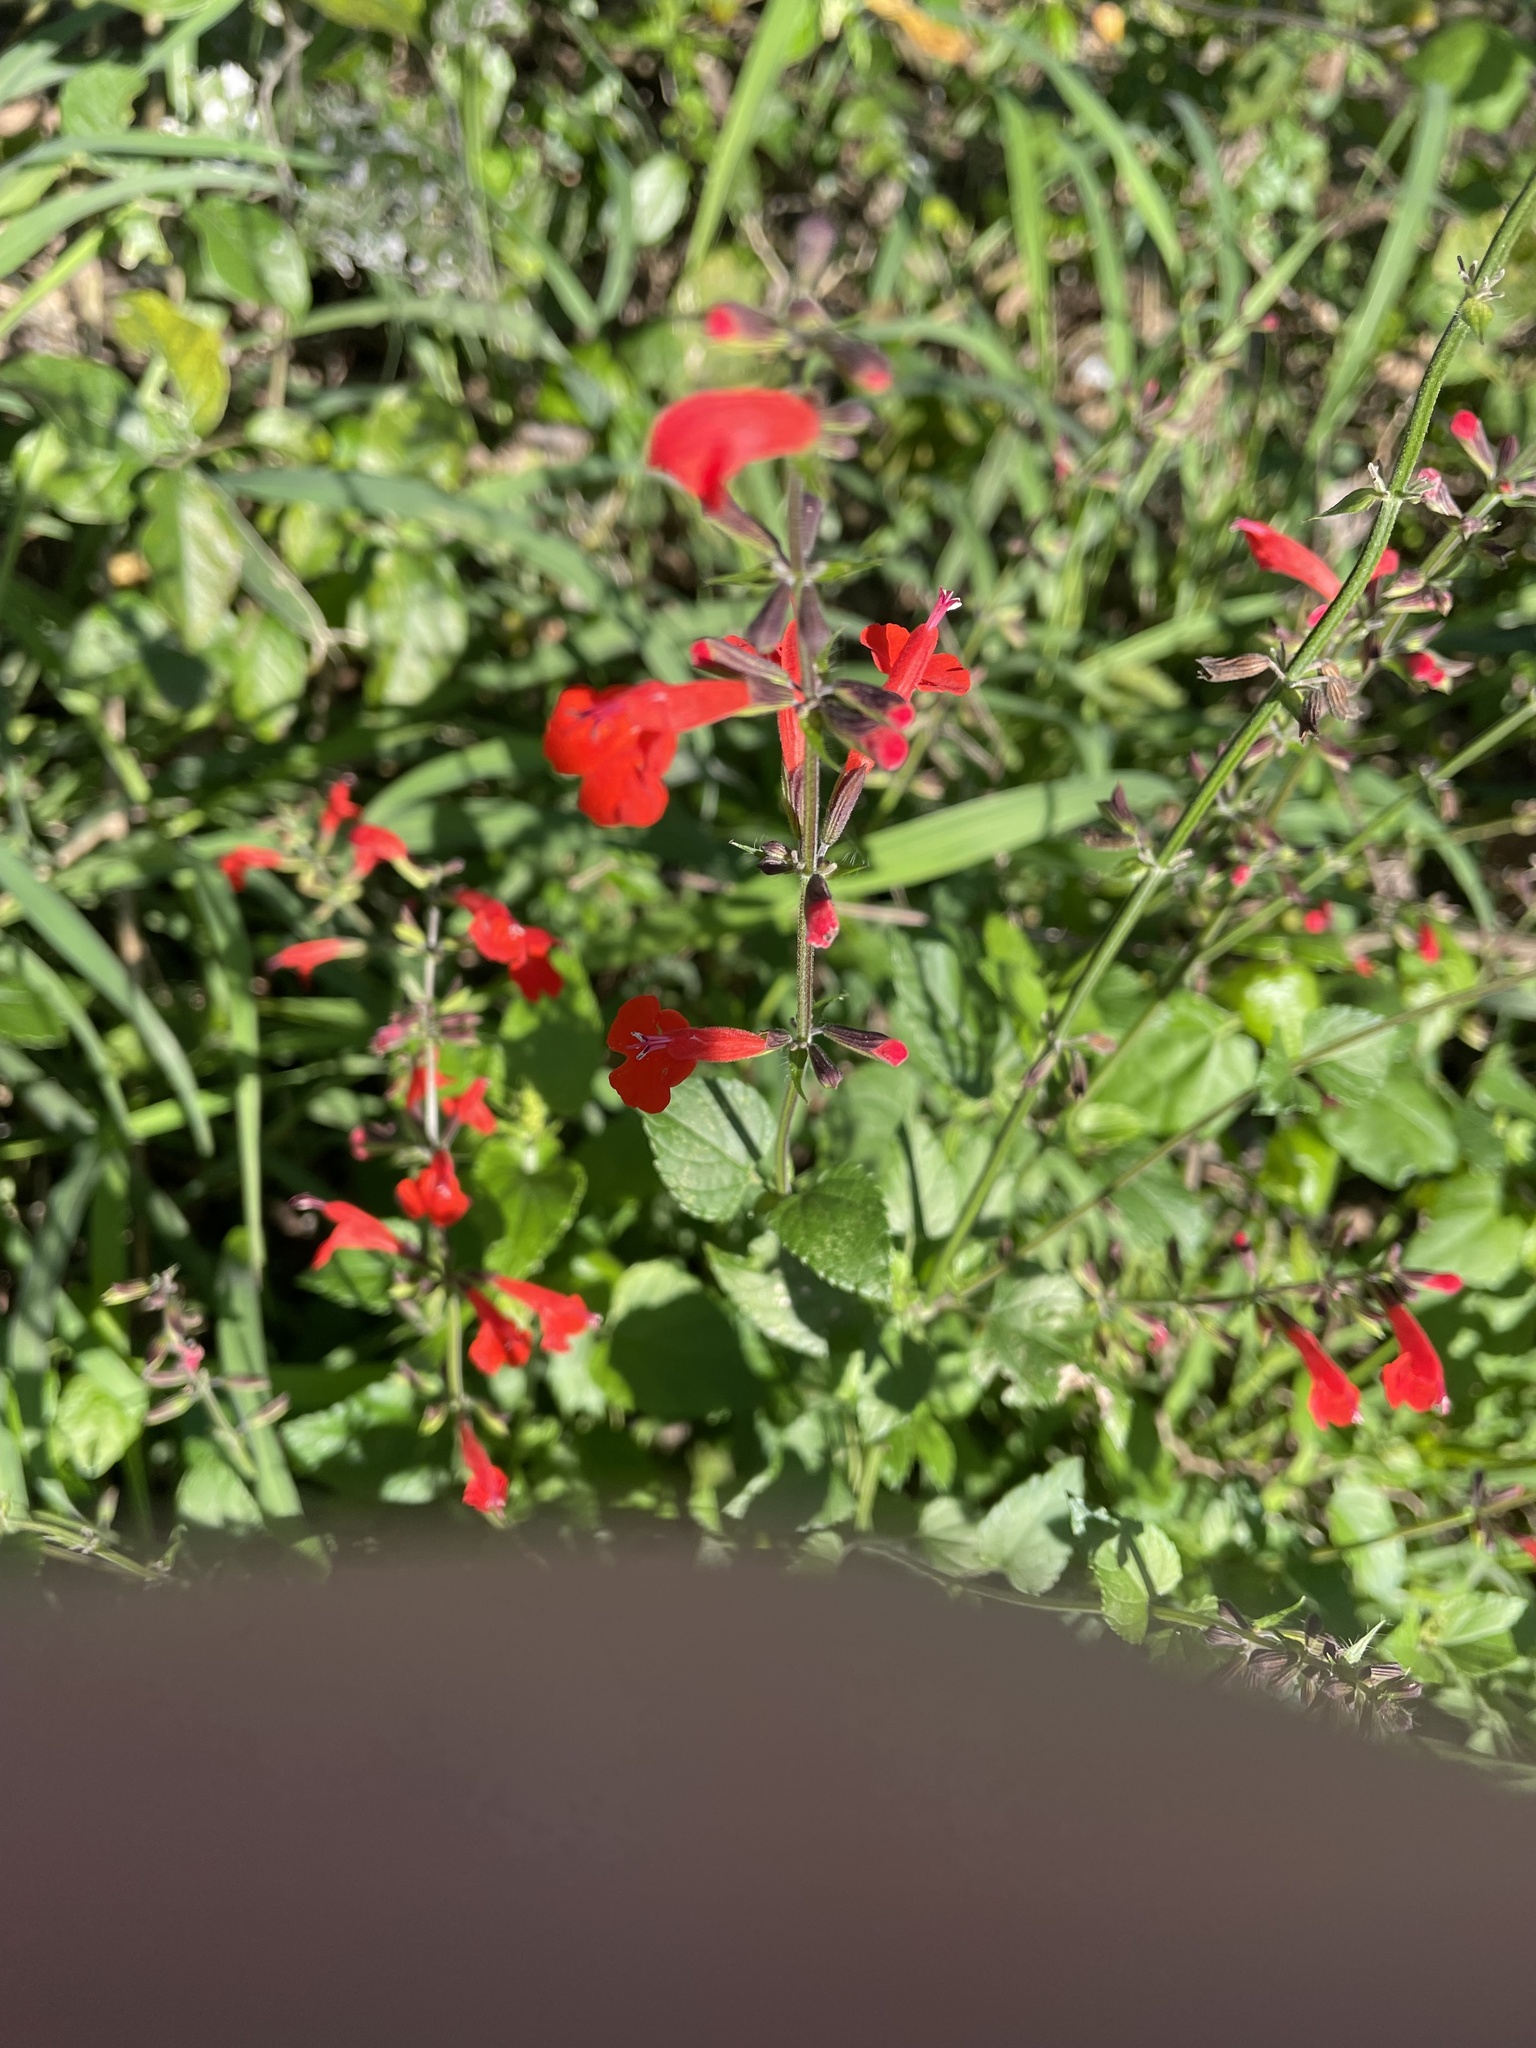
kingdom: Plantae
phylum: Tracheophyta
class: Magnoliopsida
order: Lamiales
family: Lamiaceae
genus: Salvia
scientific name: Salvia coccinea
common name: Blood sage
